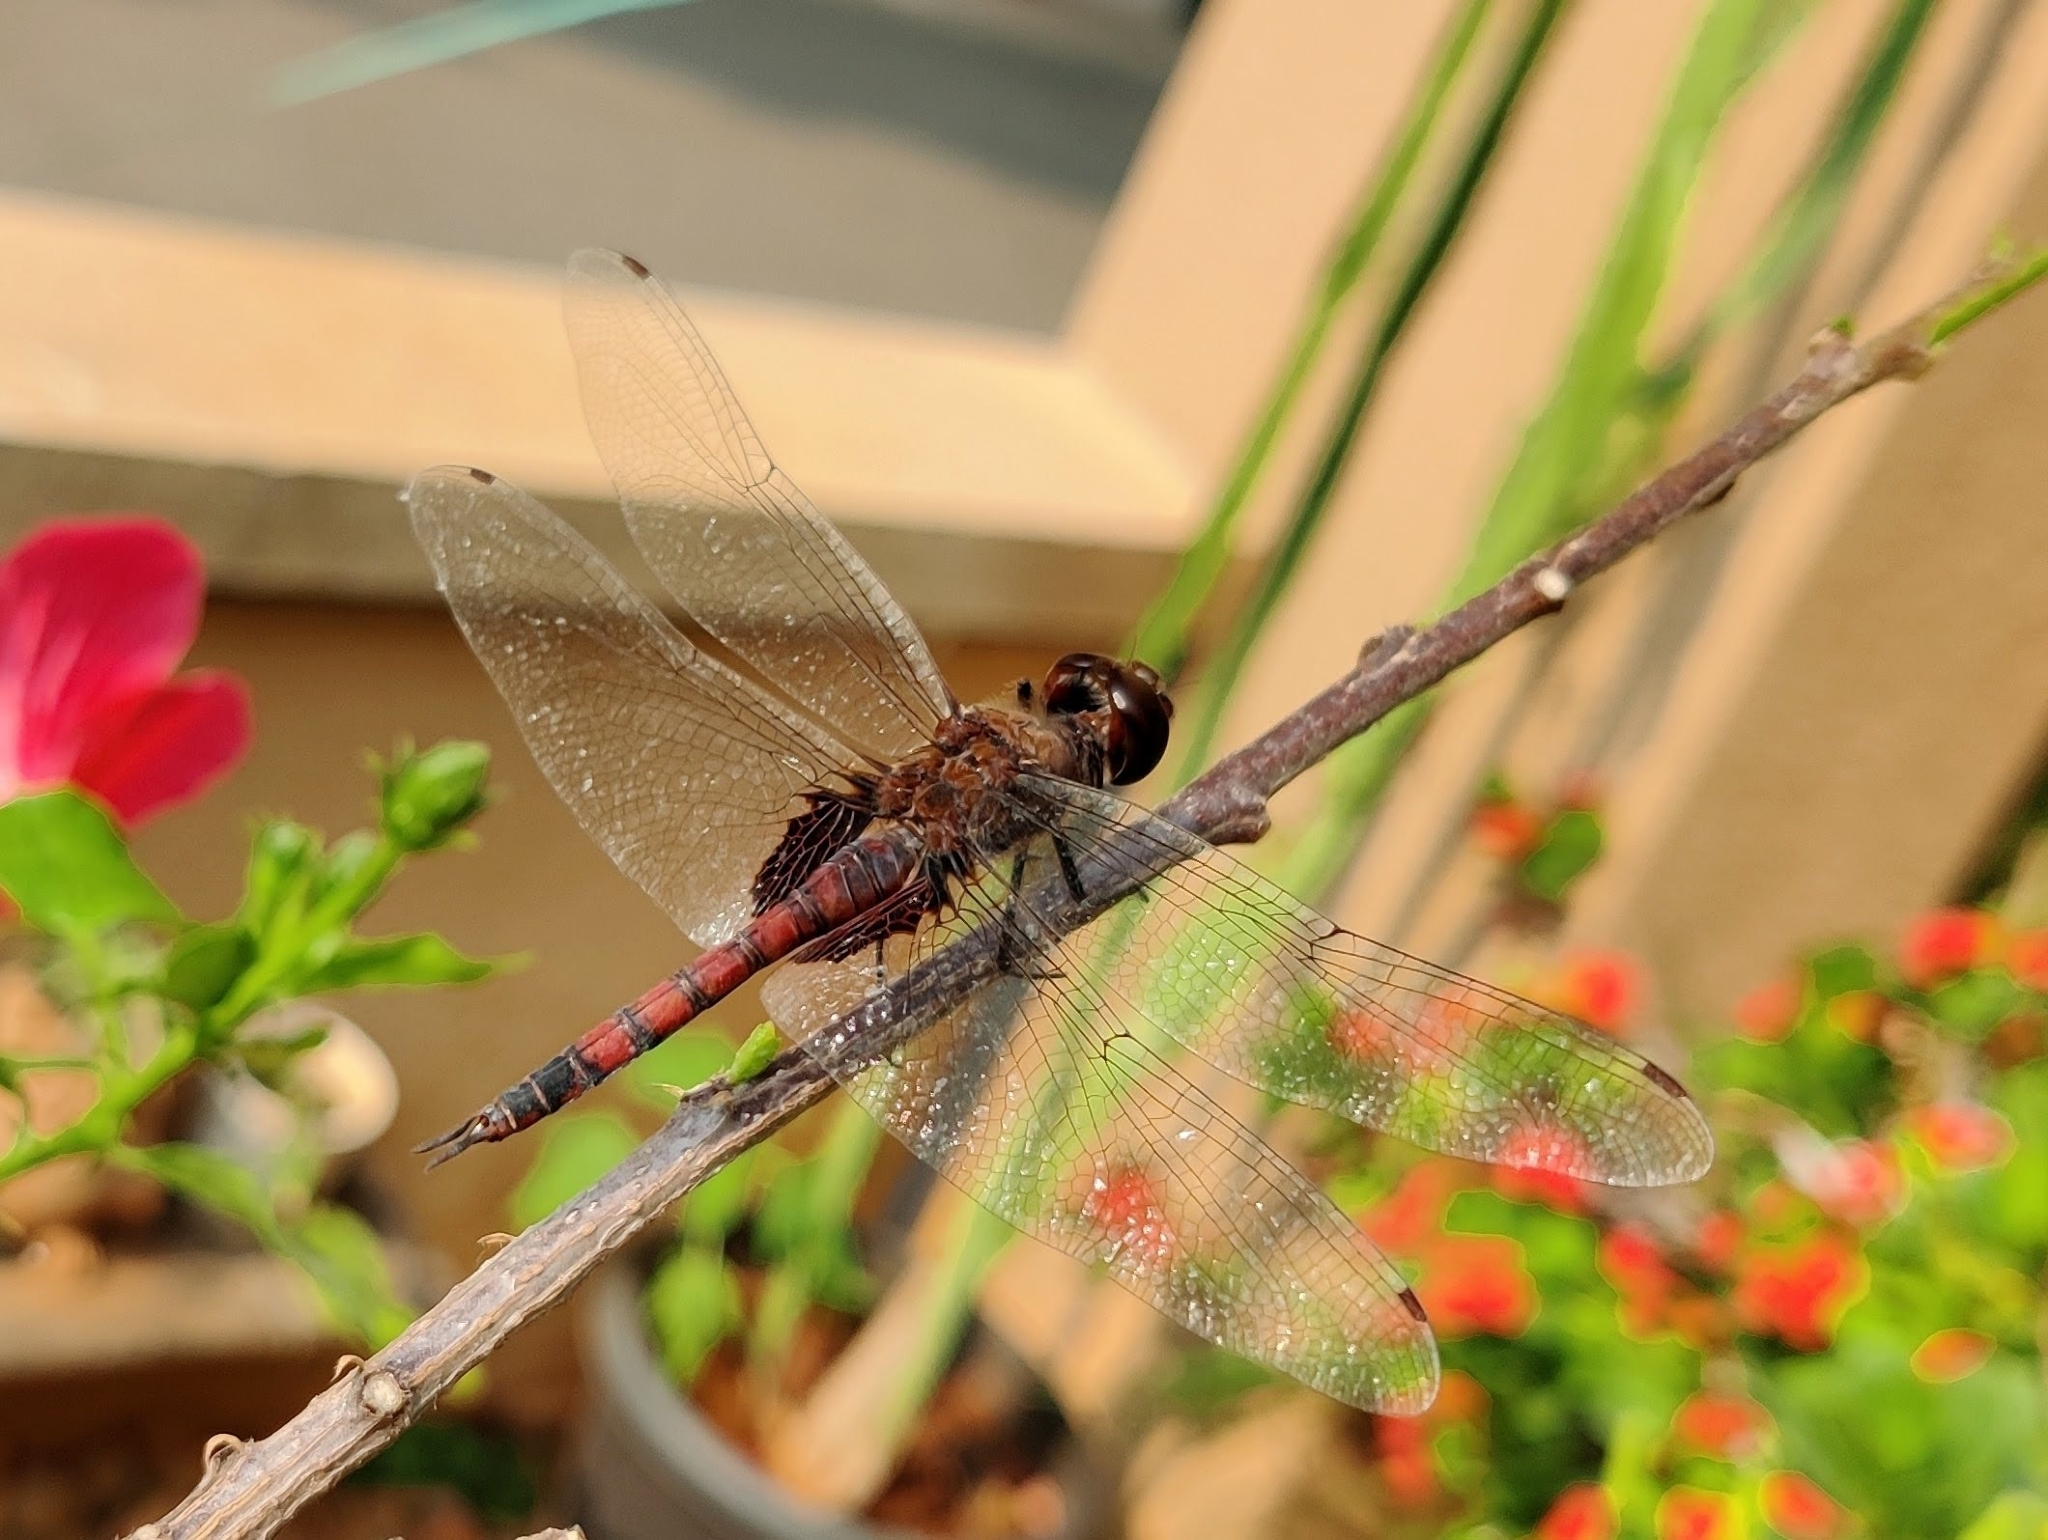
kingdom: Animalia
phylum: Arthropoda
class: Insecta
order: Odonata
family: Libellulidae
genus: Tramea
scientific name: Tramea limbata
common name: Ferruginous glider
